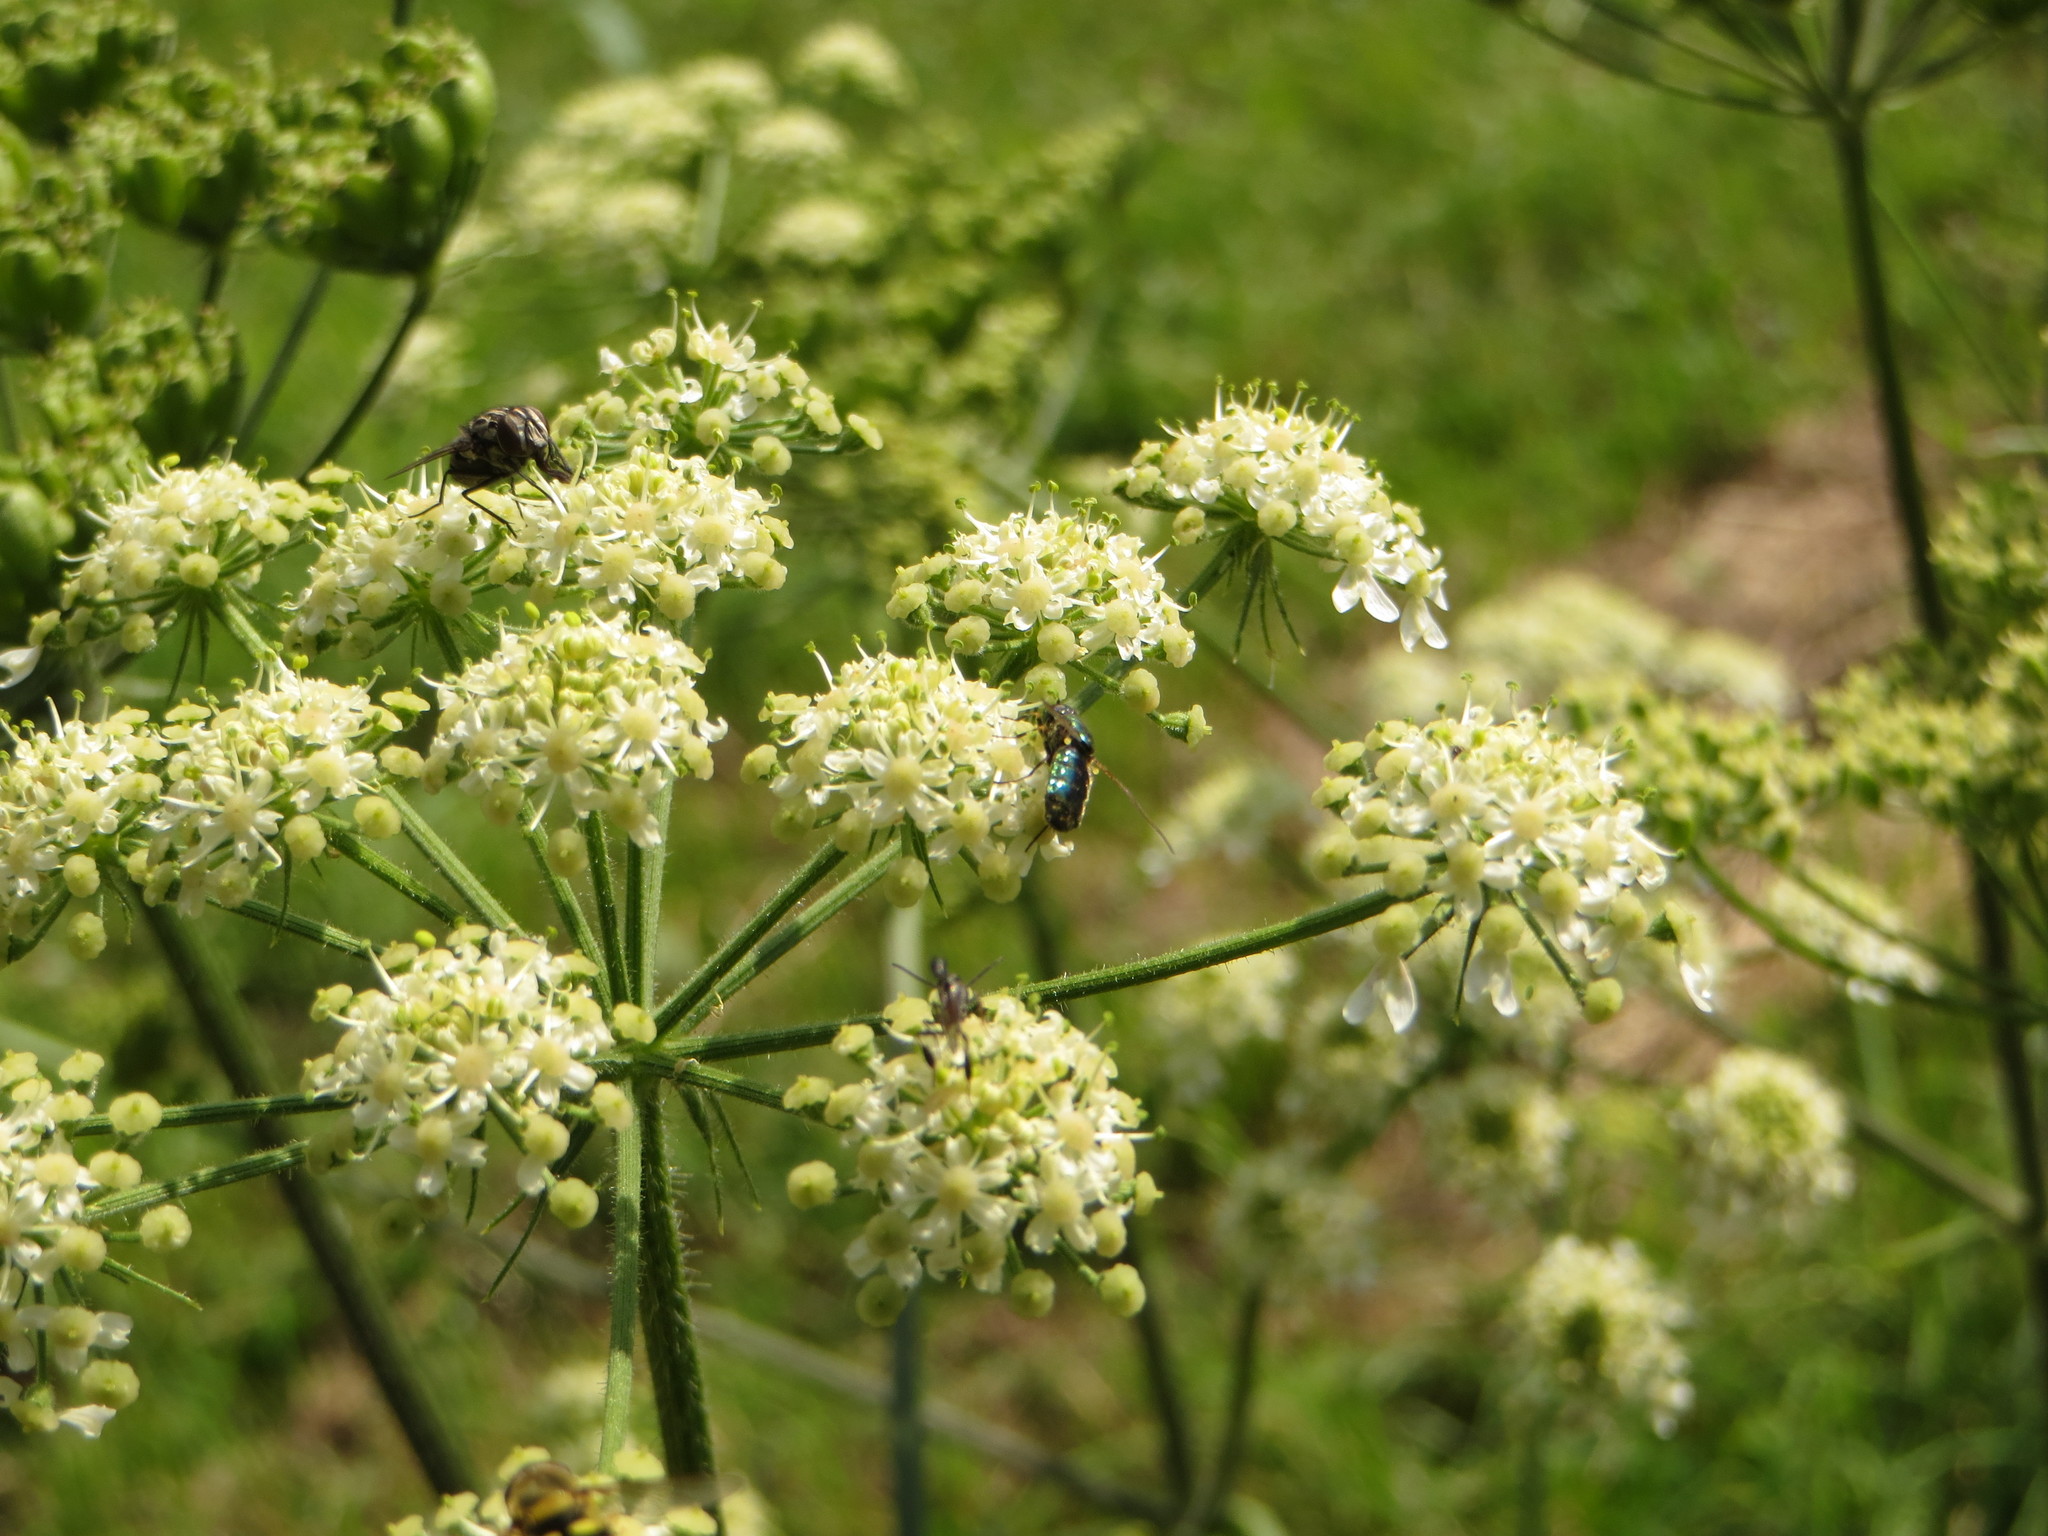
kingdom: Animalia
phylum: Arthropoda
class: Insecta
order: Diptera
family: Stratiomyidae
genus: Chloromyia
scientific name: Chloromyia formosa
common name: Soldier fly
